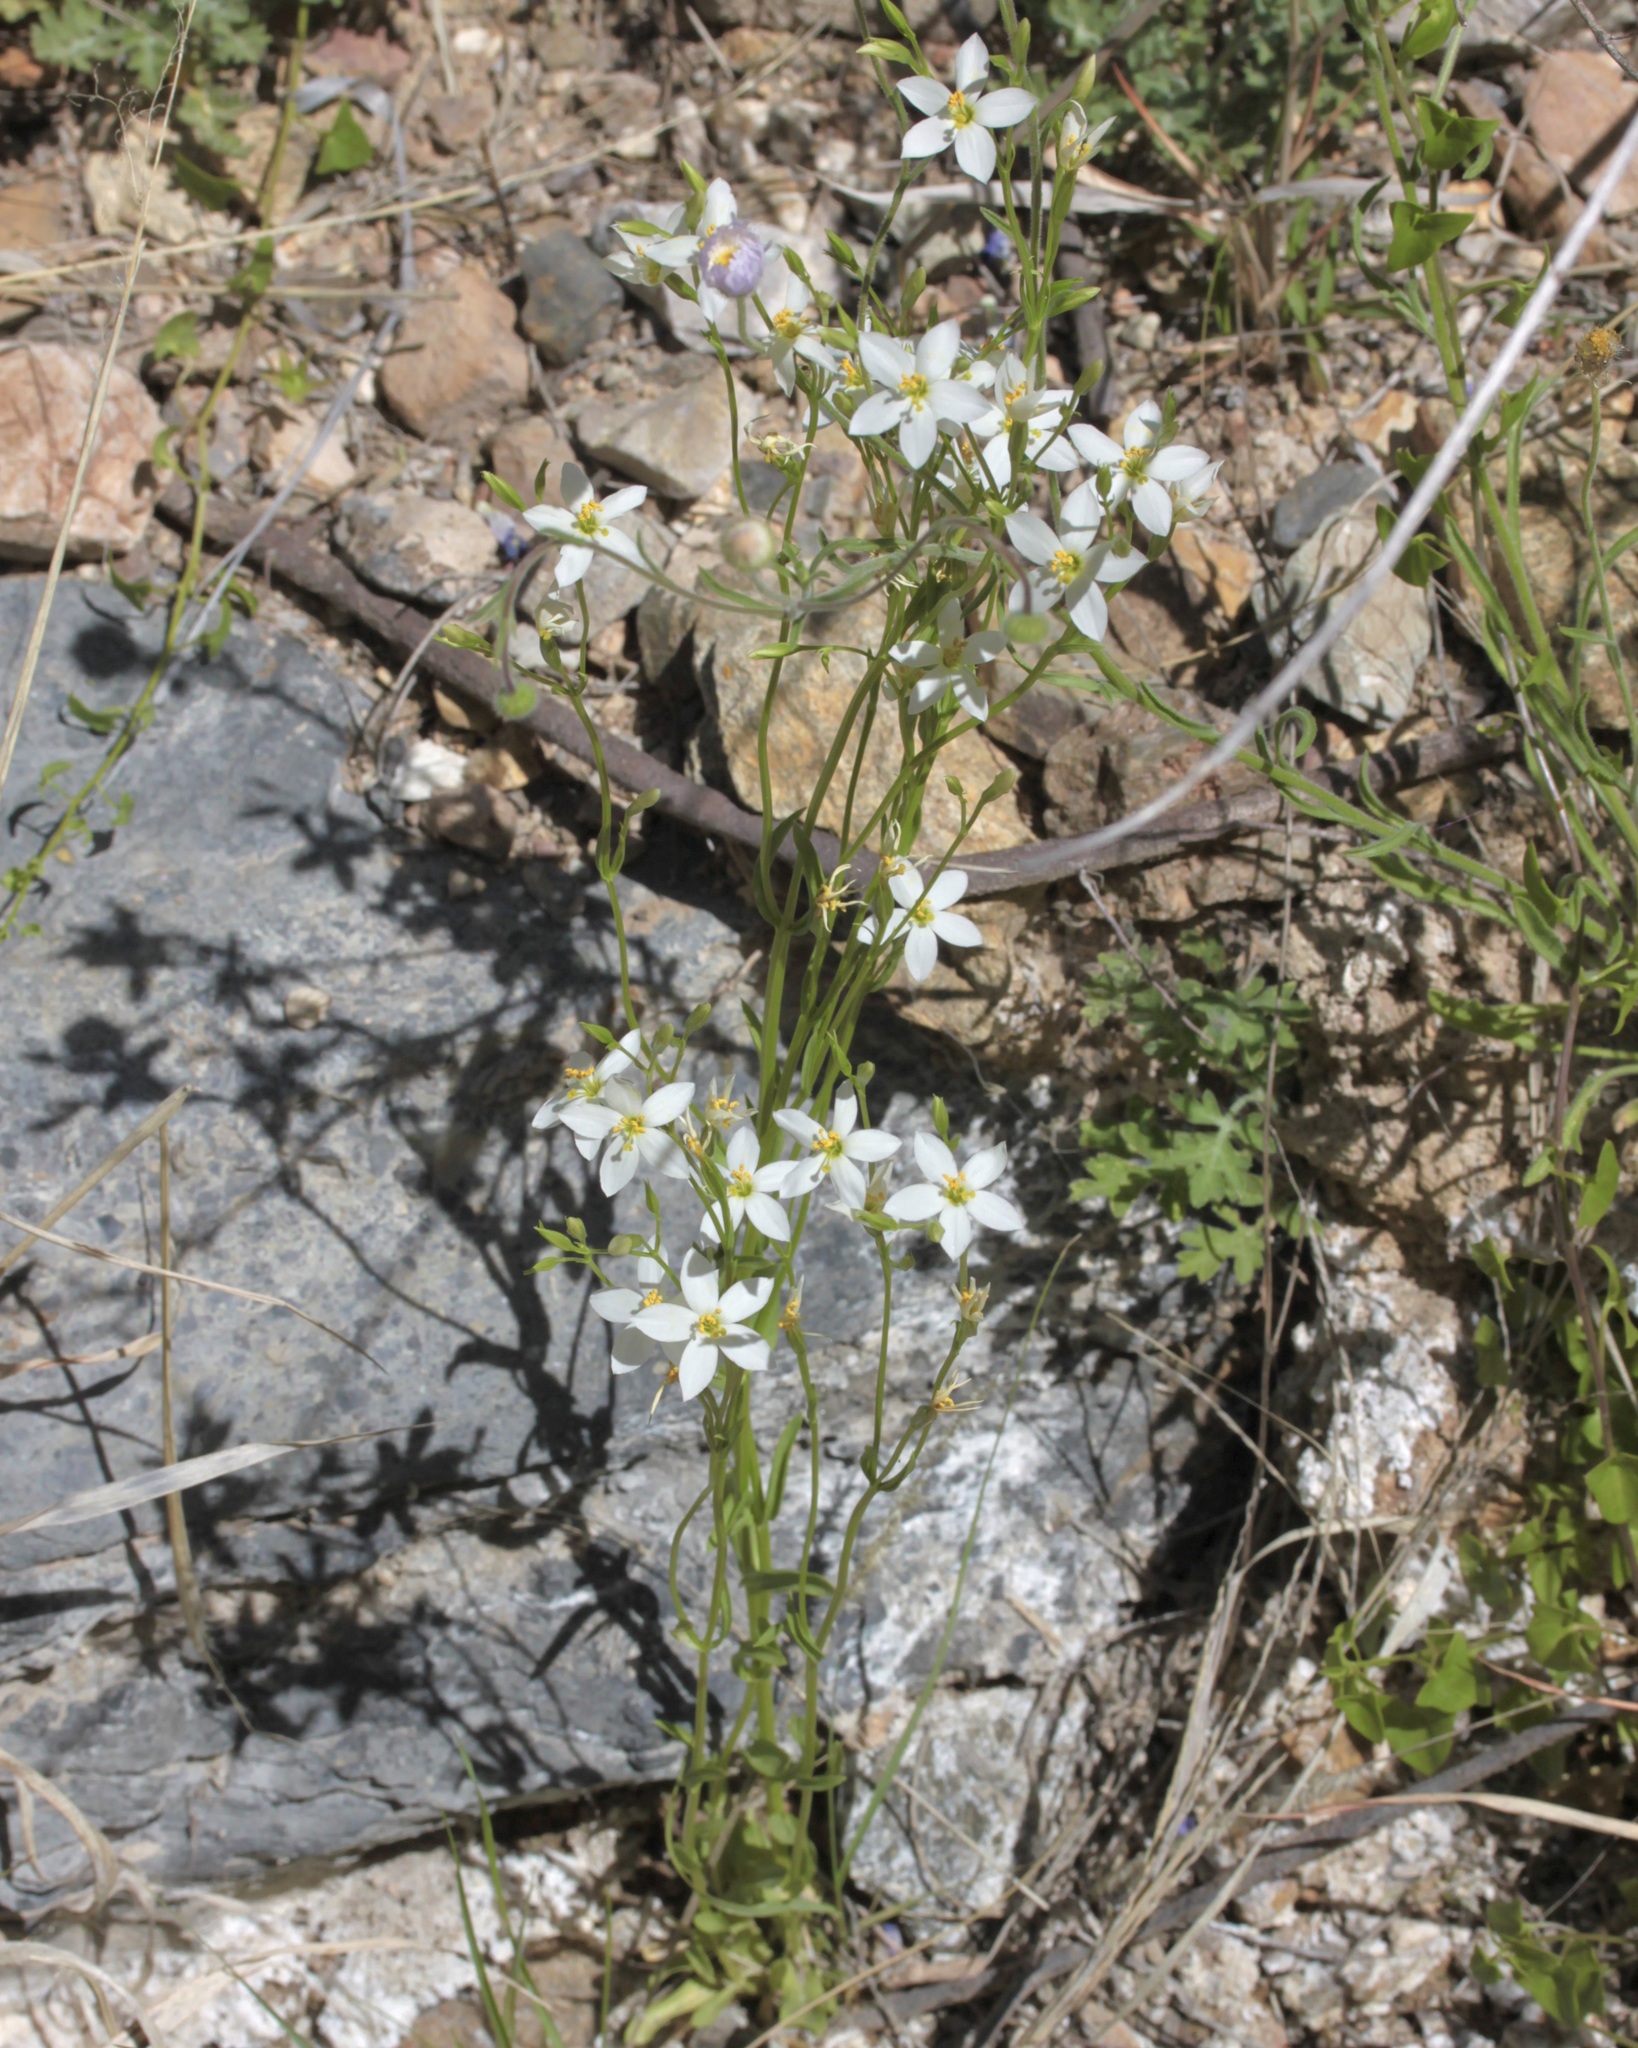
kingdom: Plantae
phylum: Tracheophyta
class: Magnoliopsida
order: Gentianales
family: Gentianaceae
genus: Zeltnera
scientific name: Zeltnera arizonica
